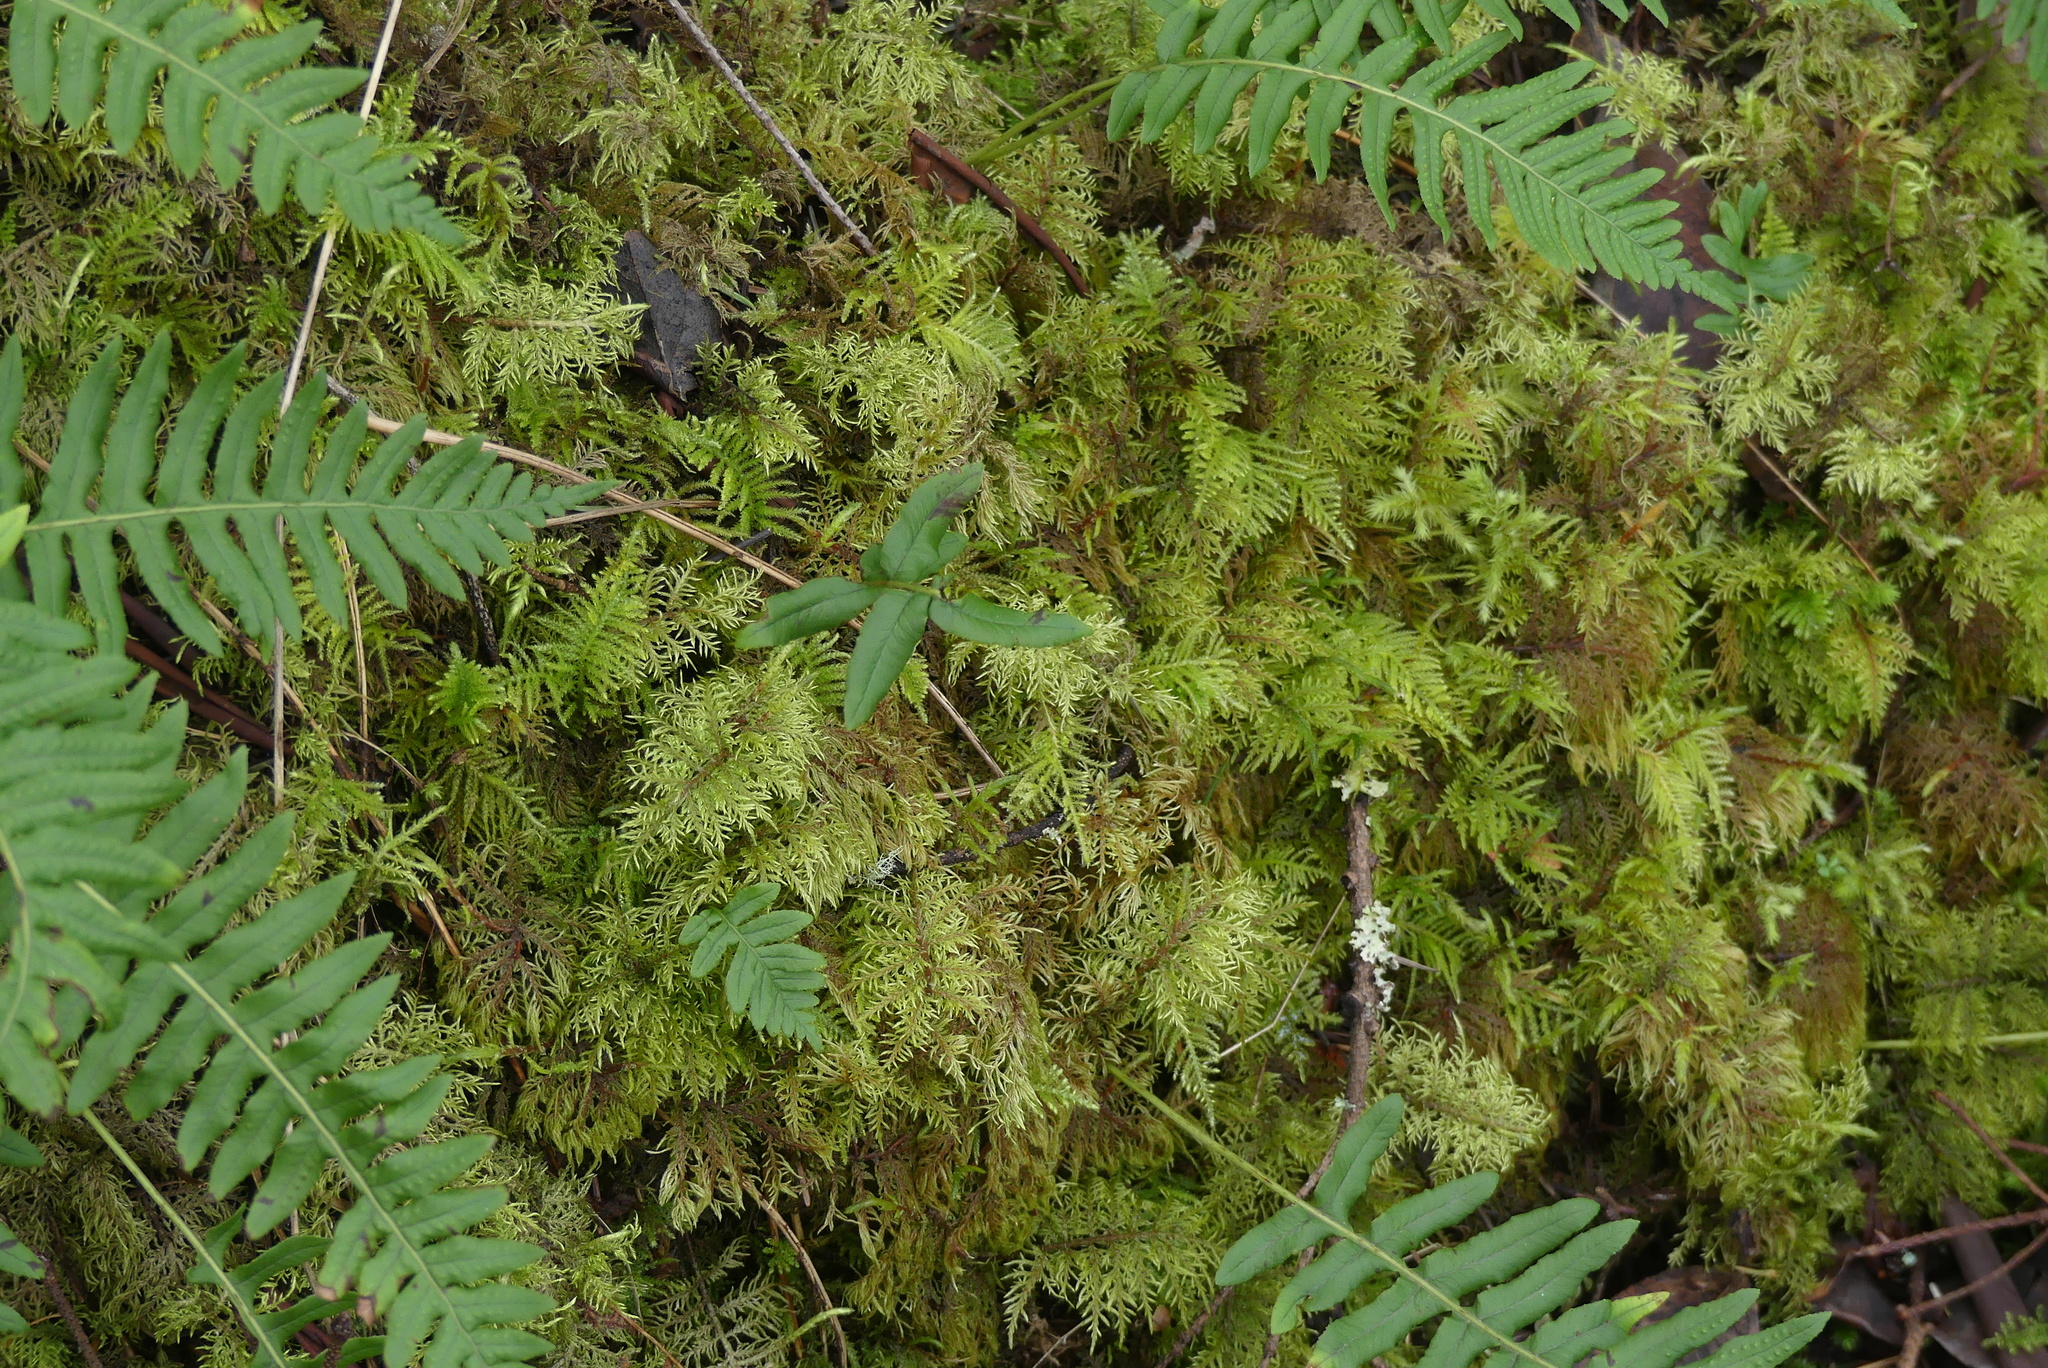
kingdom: Plantae
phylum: Bryophyta
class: Bryopsida
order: Hypnales
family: Hylocomiaceae
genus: Hylocomium
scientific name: Hylocomium splendens
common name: Stairstep moss
